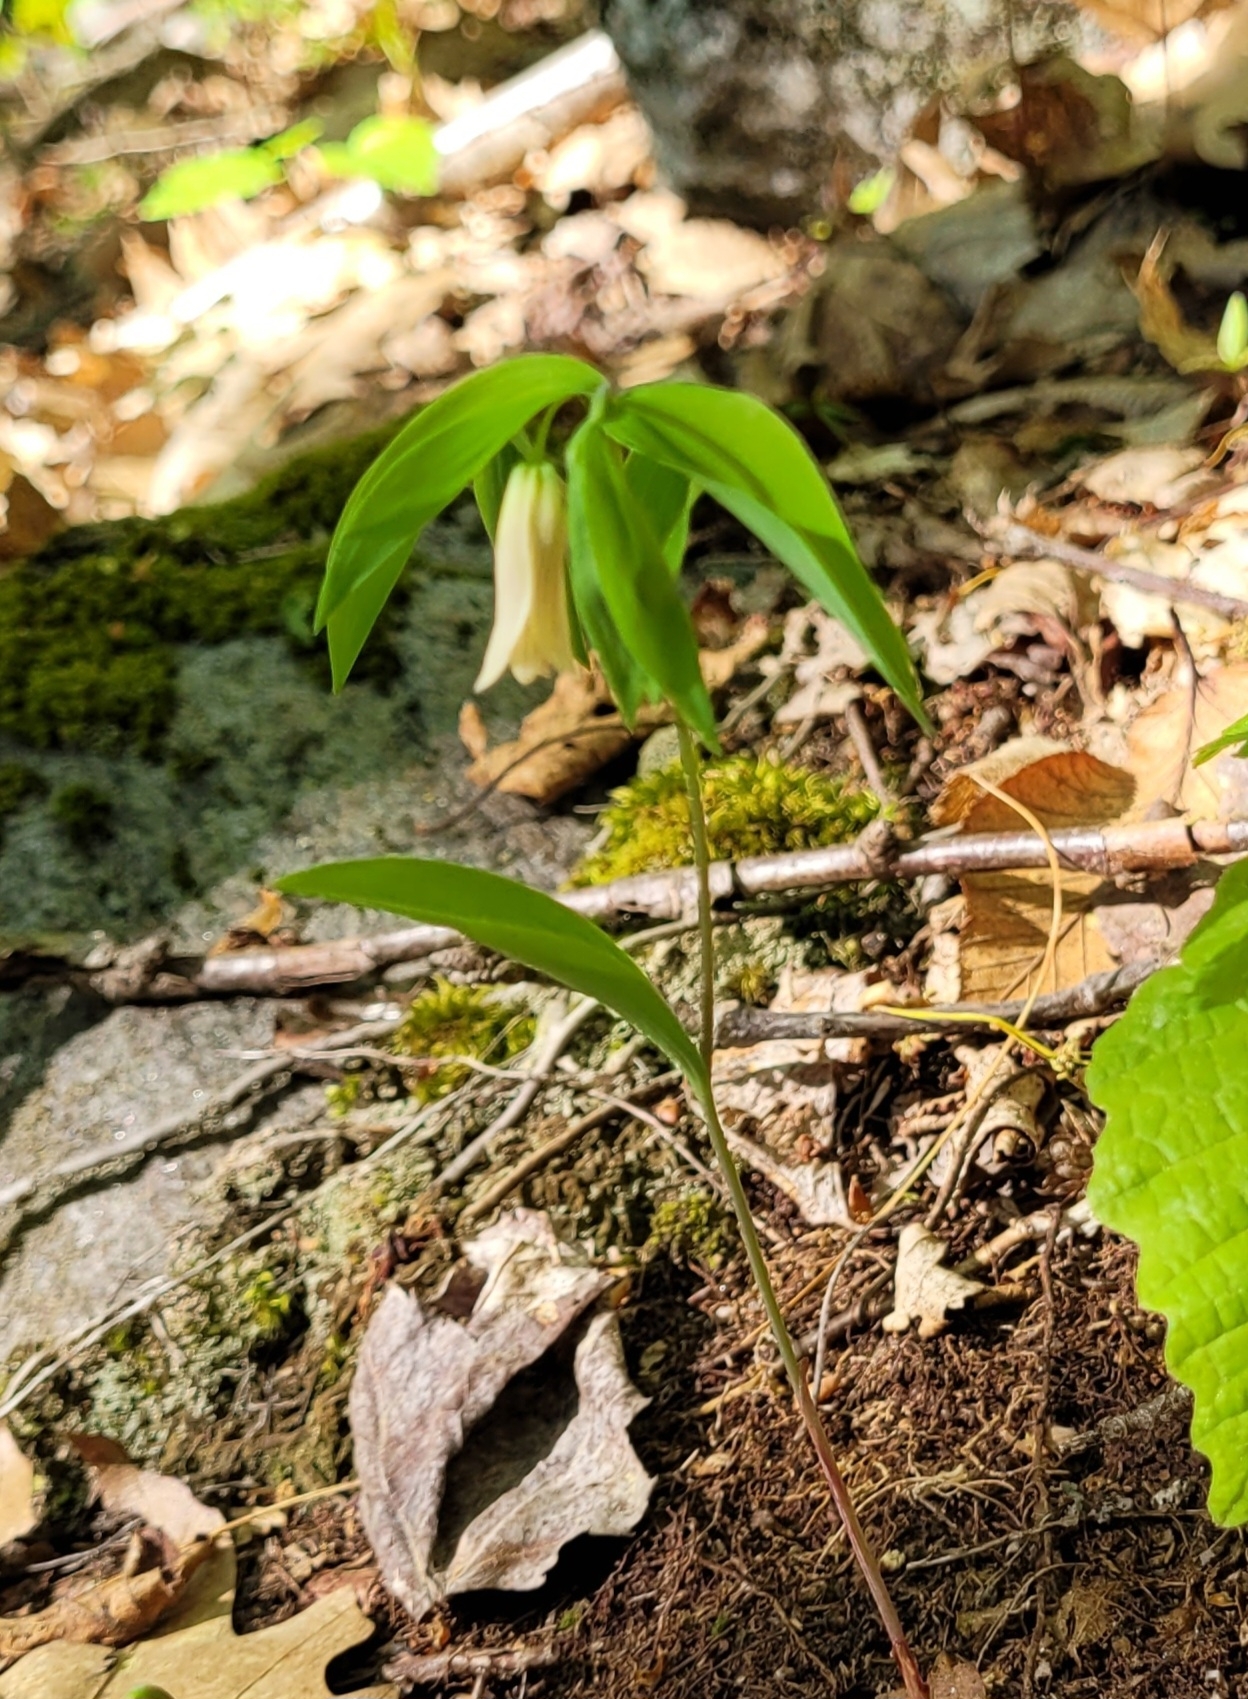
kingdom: Plantae
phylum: Tracheophyta
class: Liliopsida
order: Liliales
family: Colchicaceae
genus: Uvularia
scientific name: Uvularia sessilifolia
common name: Straw-lily
